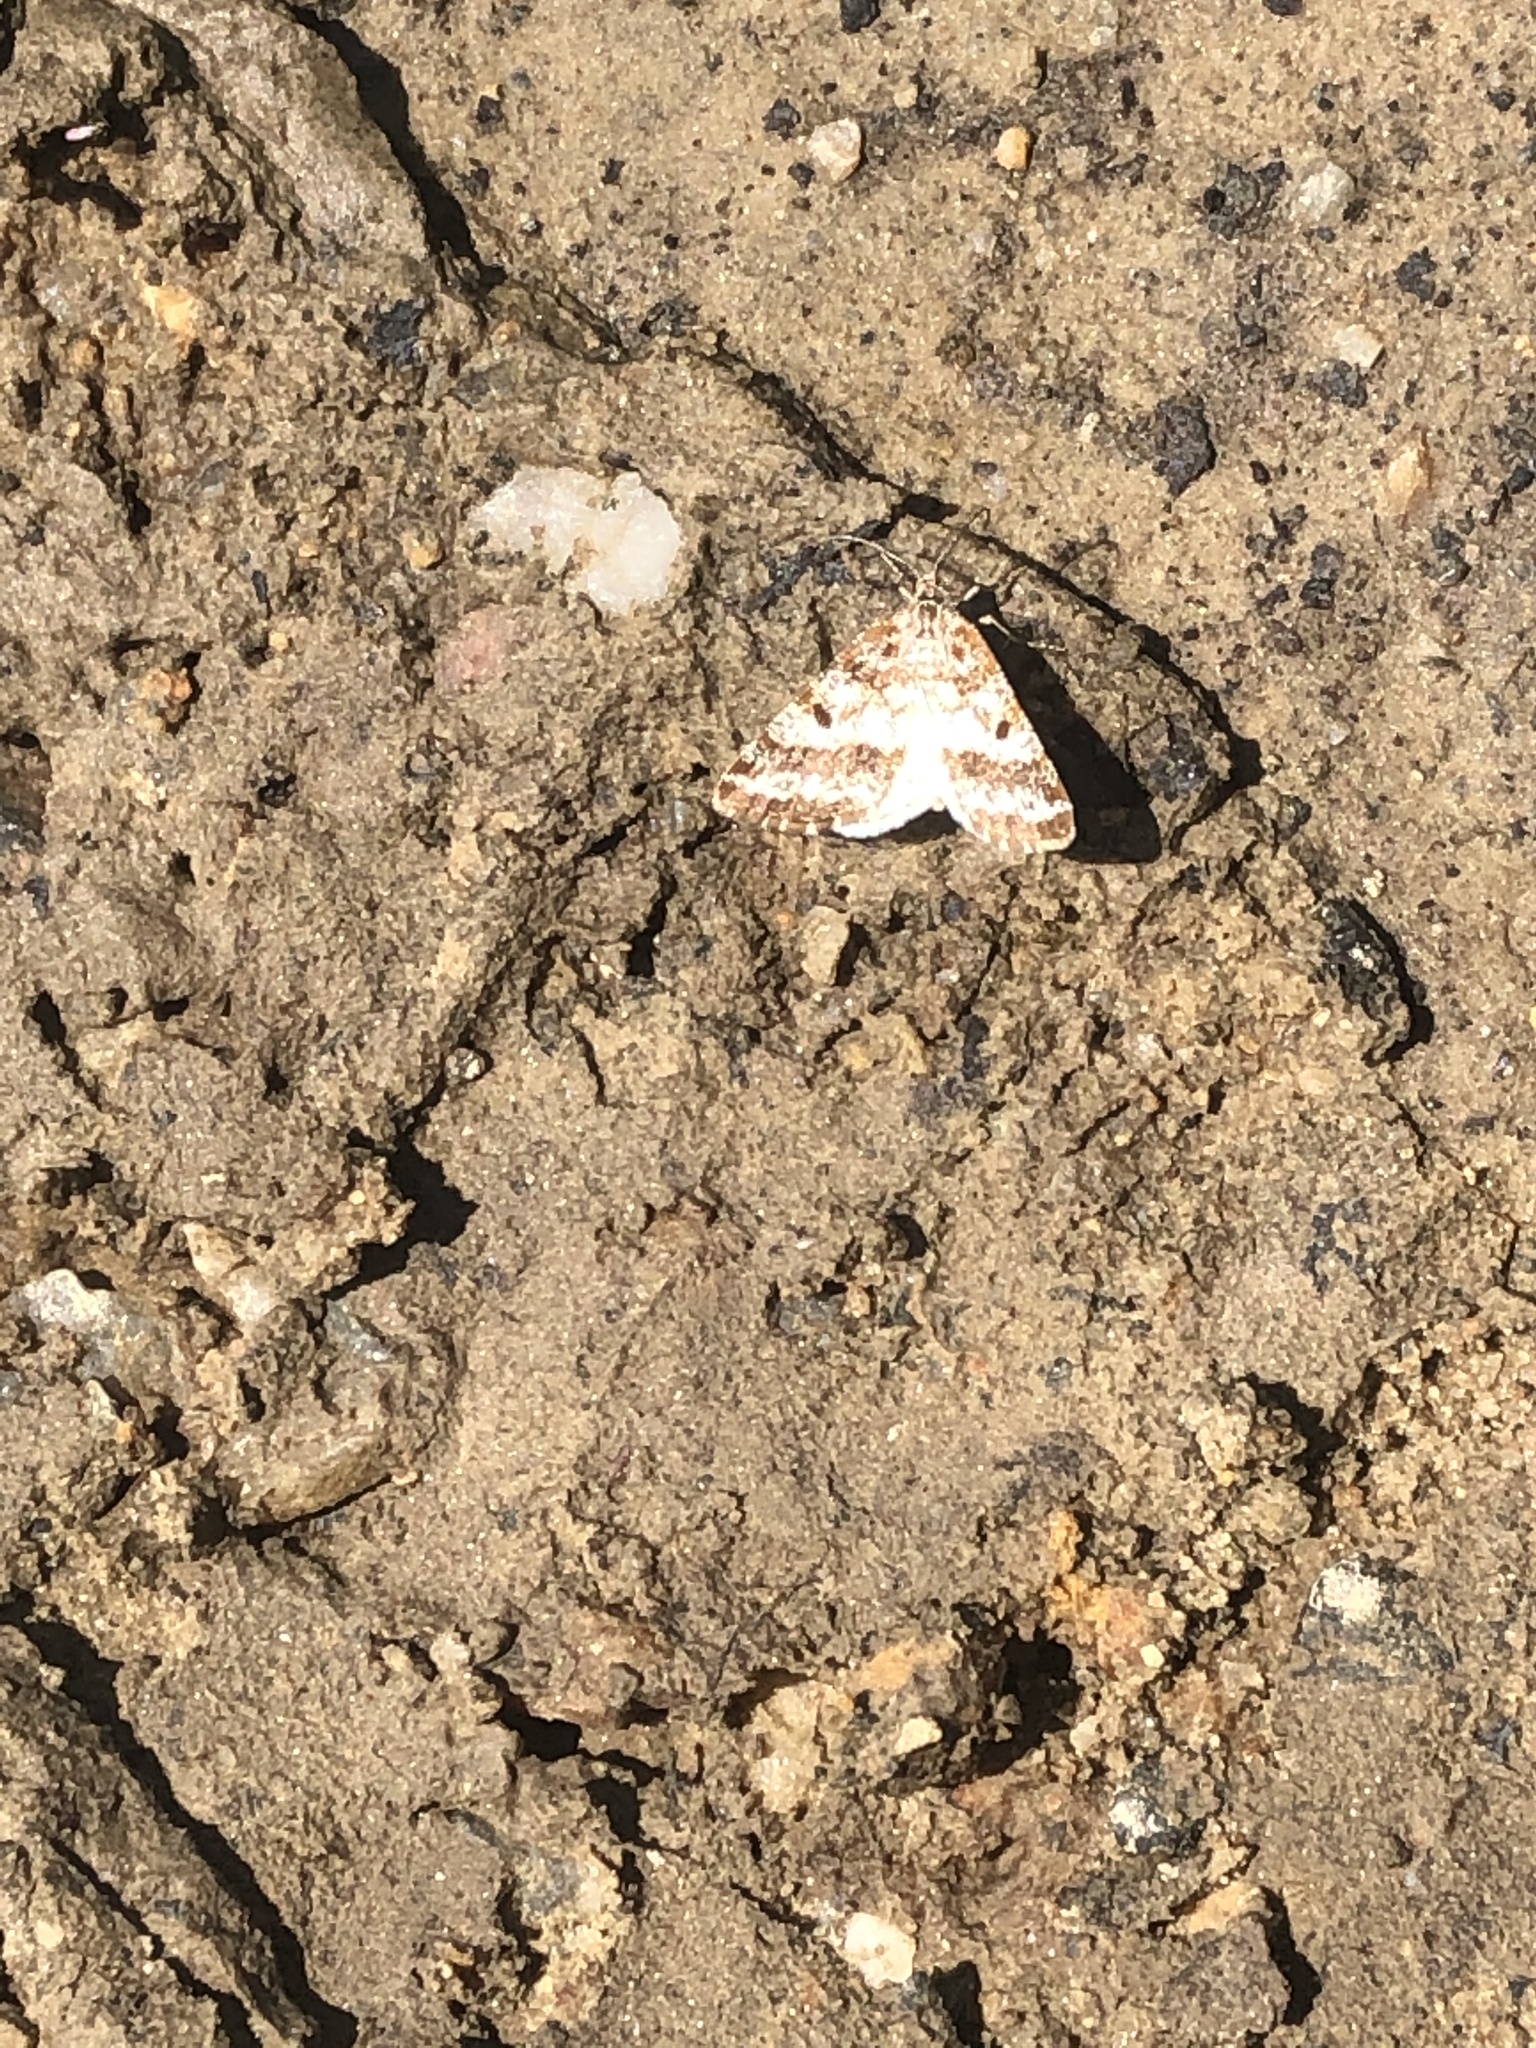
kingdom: Animalia
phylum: Arthropoda
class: Insecta
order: Lepidoptera
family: Geometridae
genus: Eufidonia
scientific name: Eufidonia notataria
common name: Powder moth
